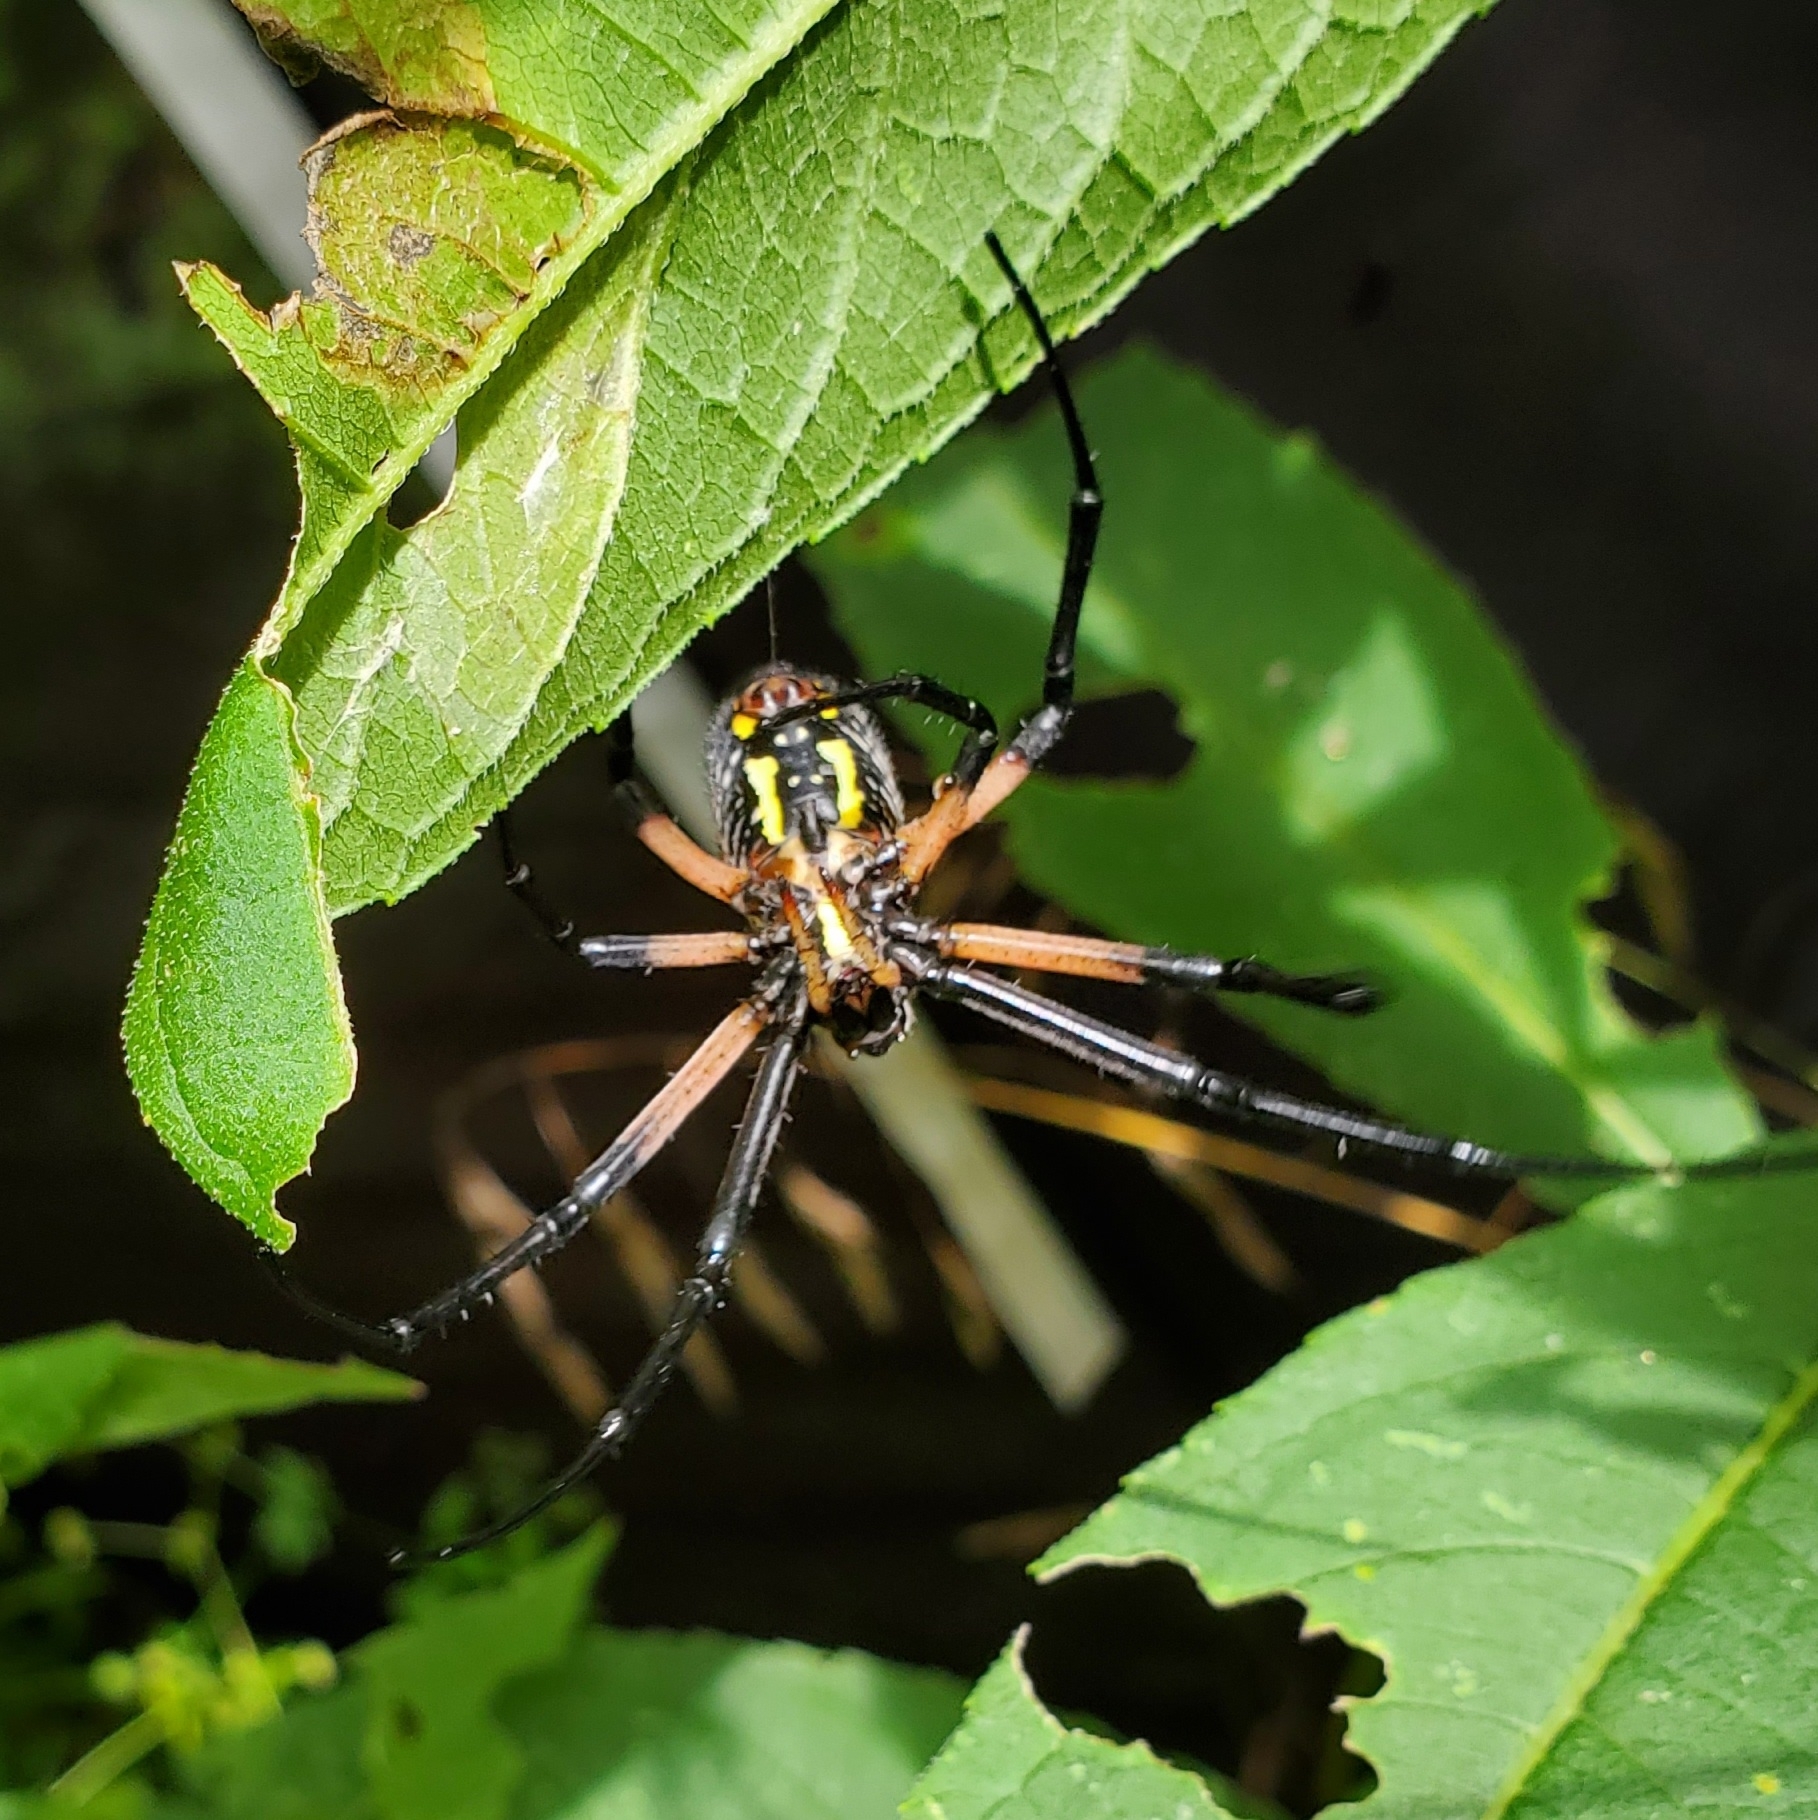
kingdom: Animalia
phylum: Arthropoda
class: Arachnida
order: Araneae
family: Araneidae
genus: Argiope
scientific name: Argiope aurantia
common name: Orb weavers
